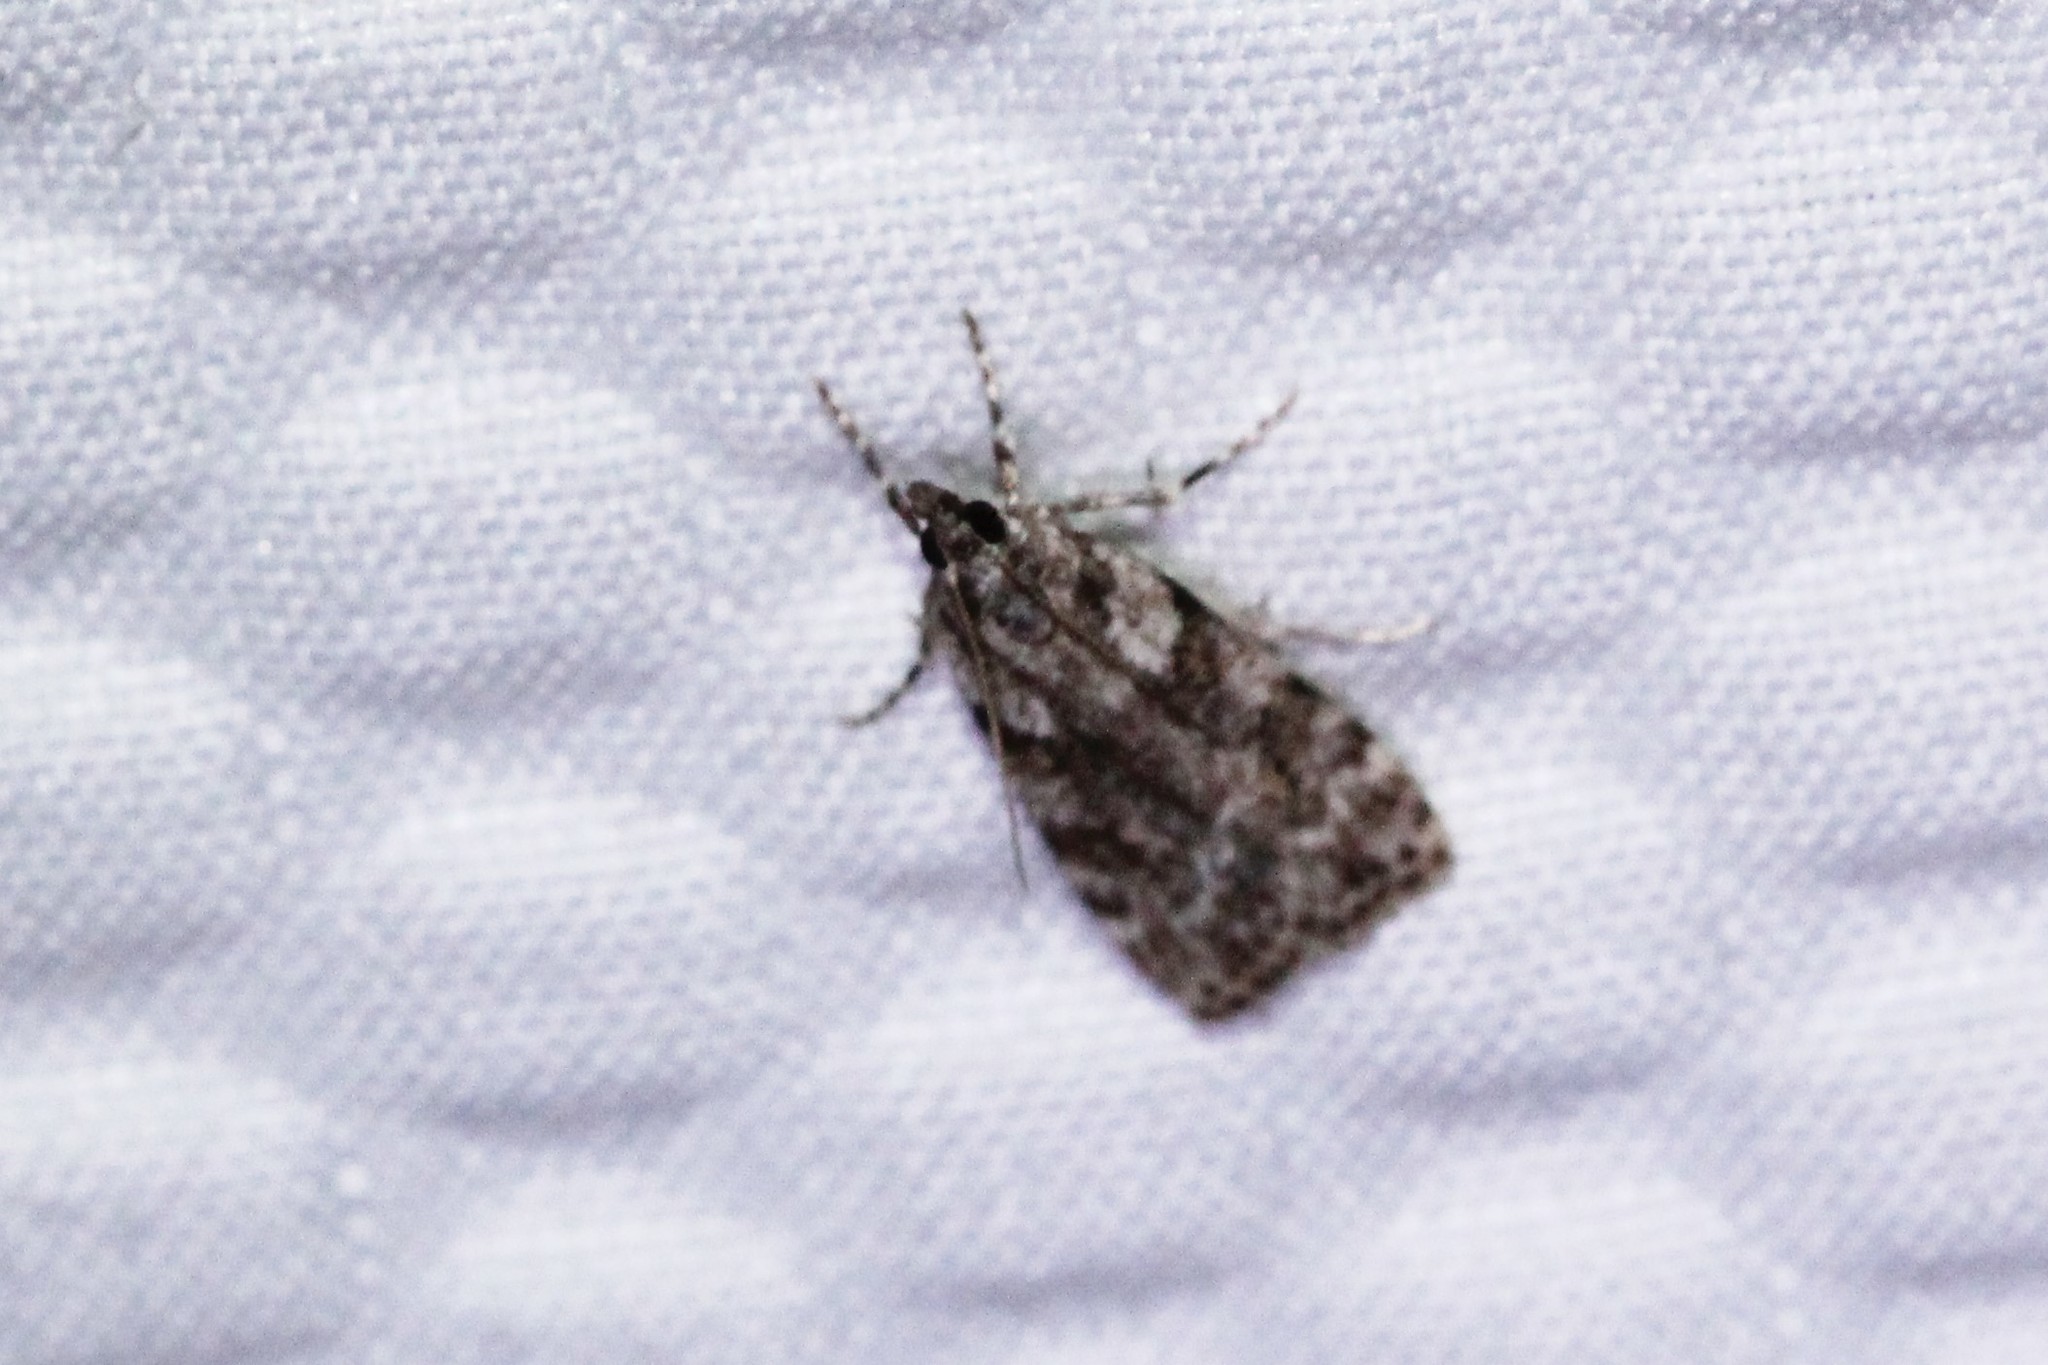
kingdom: Animalia
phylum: Arthropoda
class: Insecta
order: Lepidoptera
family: Crambidae
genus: Scoparia
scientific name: Scoparia biplagialis
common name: Double-striped scoparia moth
